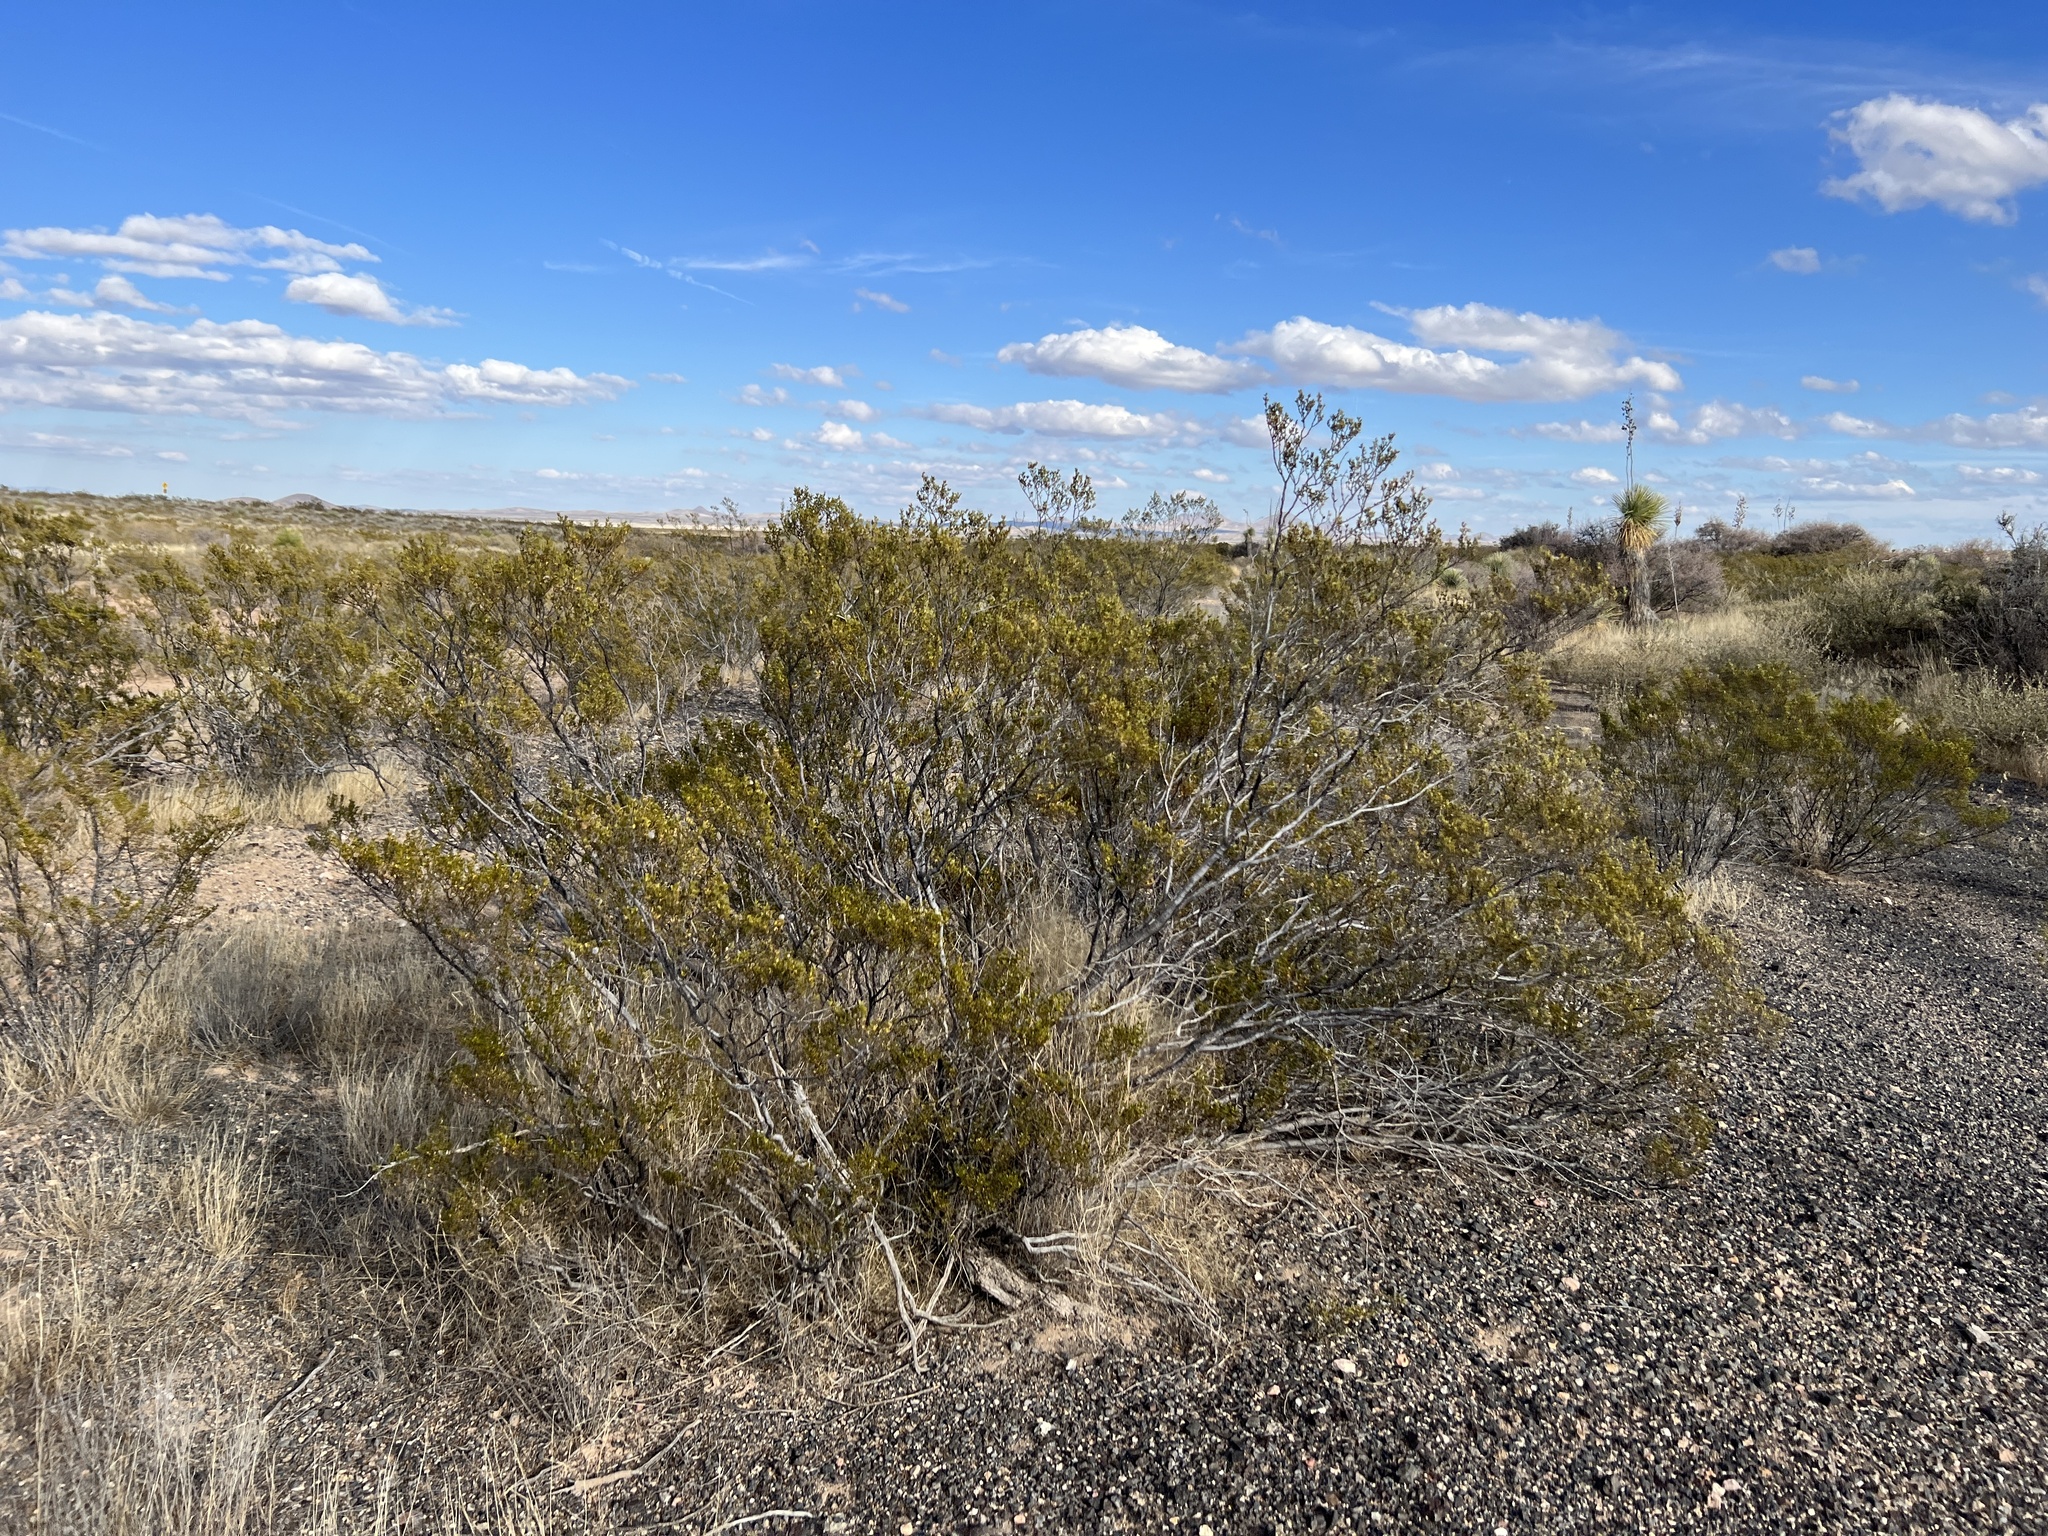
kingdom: Plantae
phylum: Tracheophyta
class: Magnoliopsida
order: Zygophyllales
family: Zygophyllaceae
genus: Larrea
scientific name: Larrea tridentata
